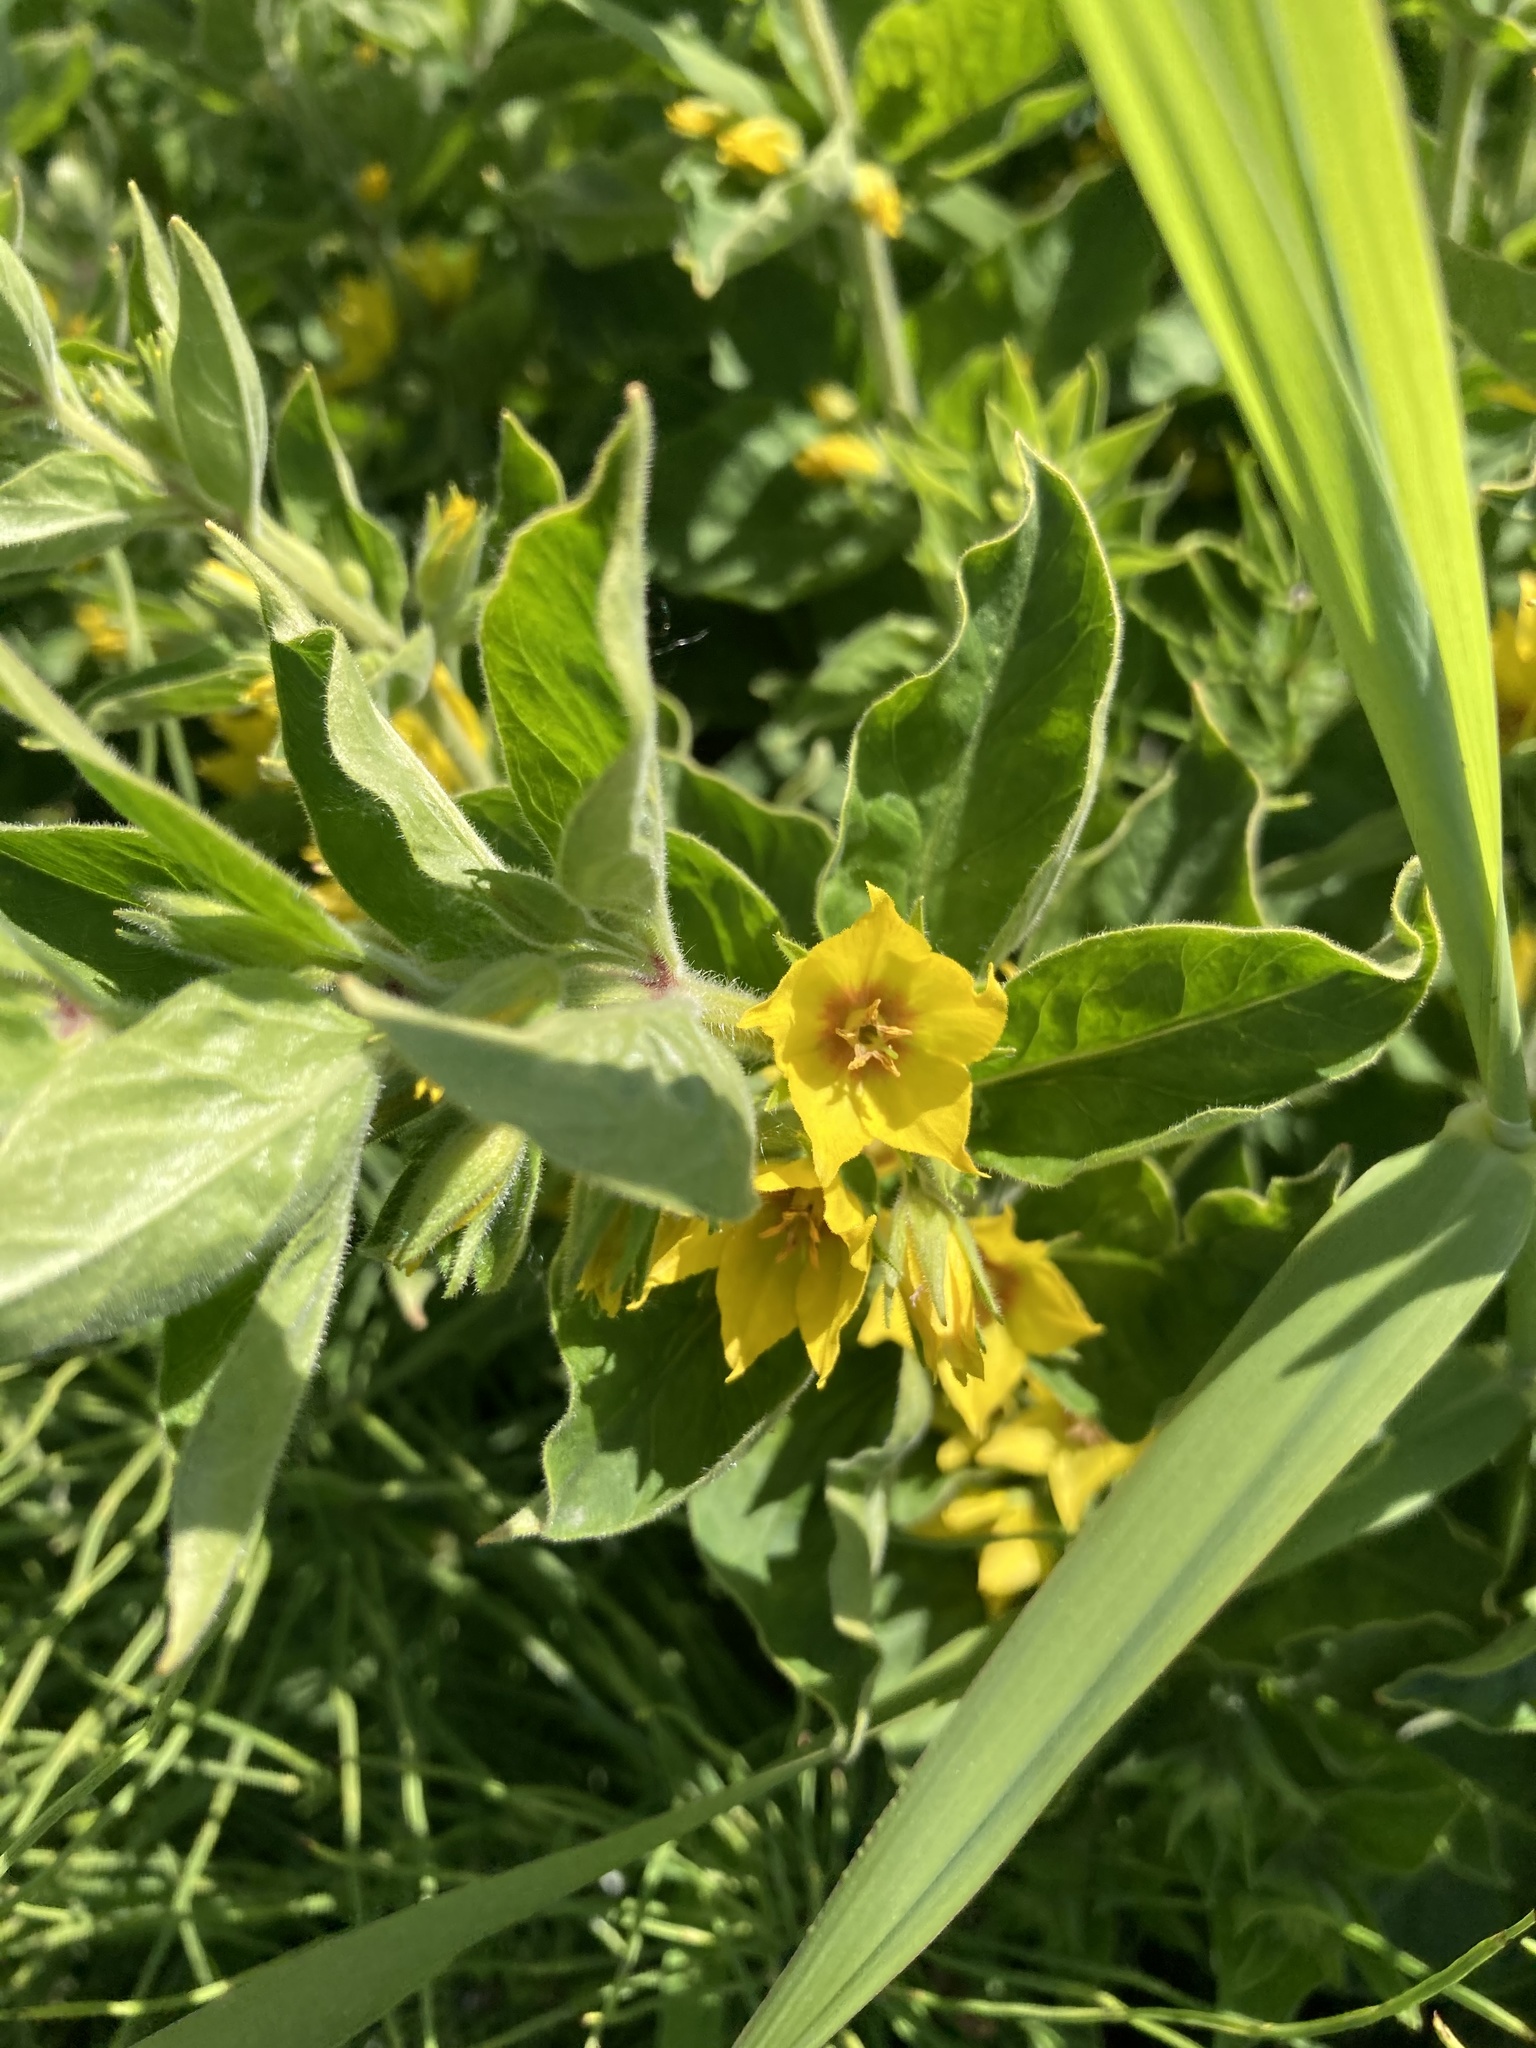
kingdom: Plantae
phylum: Tracheophyta
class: Magnoliopsida
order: Ericales
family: Primulaceae
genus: Lysimachia
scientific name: Lysimachia punctata
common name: Dotted loosestrife
